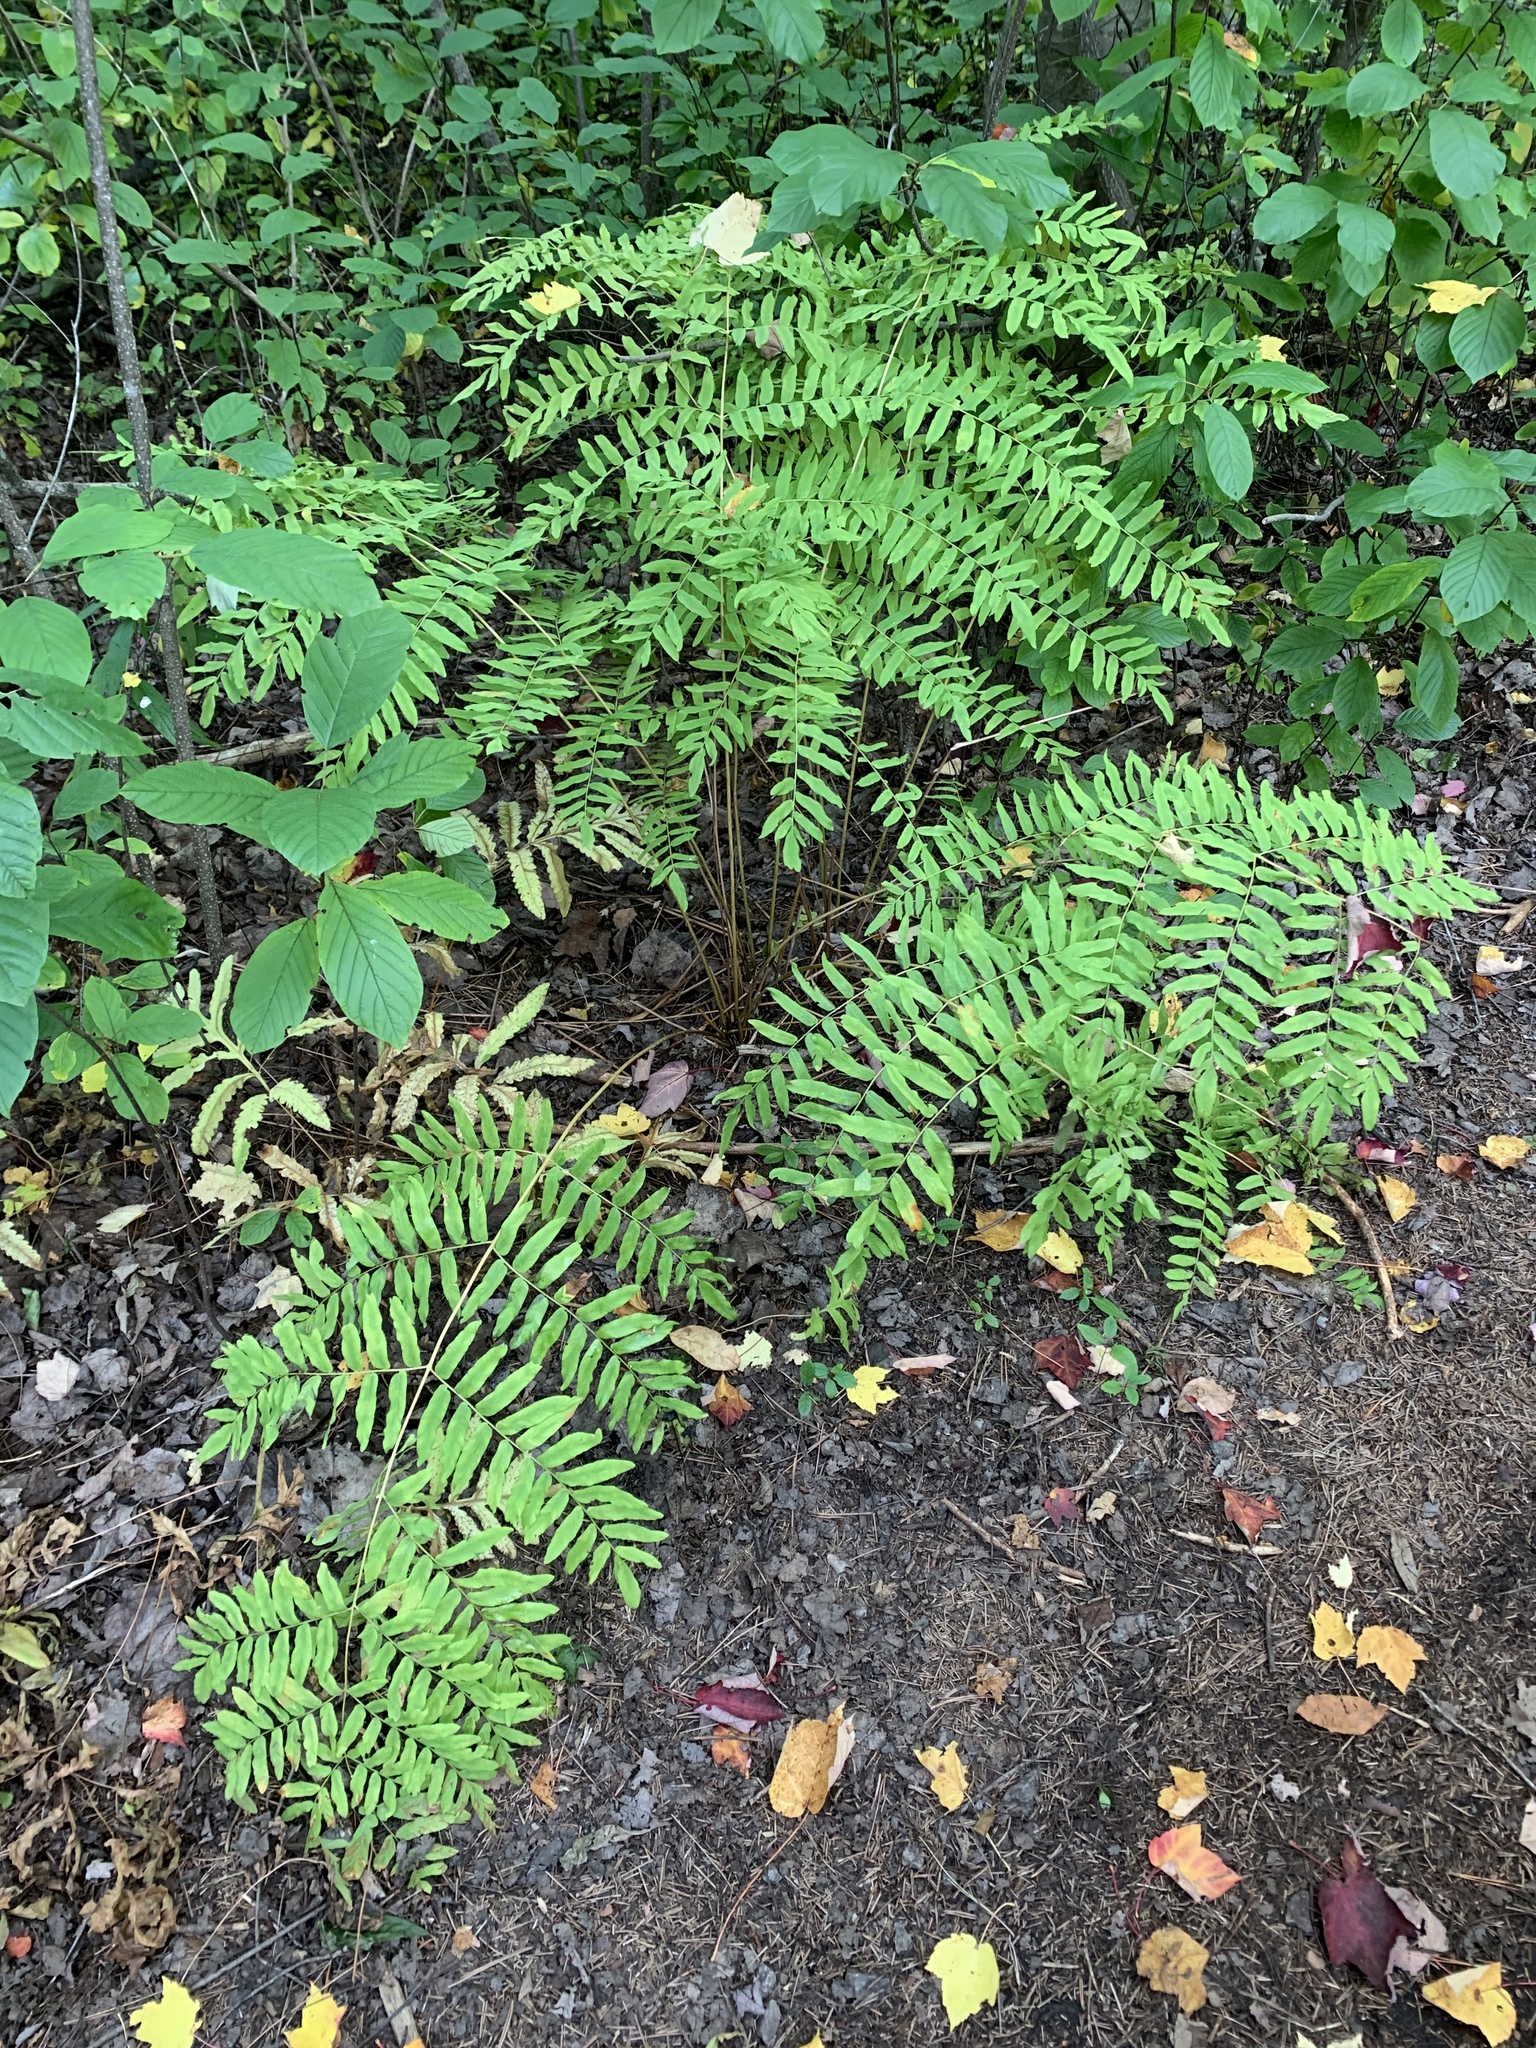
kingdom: Plantae
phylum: Tracheophyta
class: Polypodiopsida
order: Osmundales
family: Osmundaceae
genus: Osmunda
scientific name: Osmunda spectabilis
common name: American royal fern
